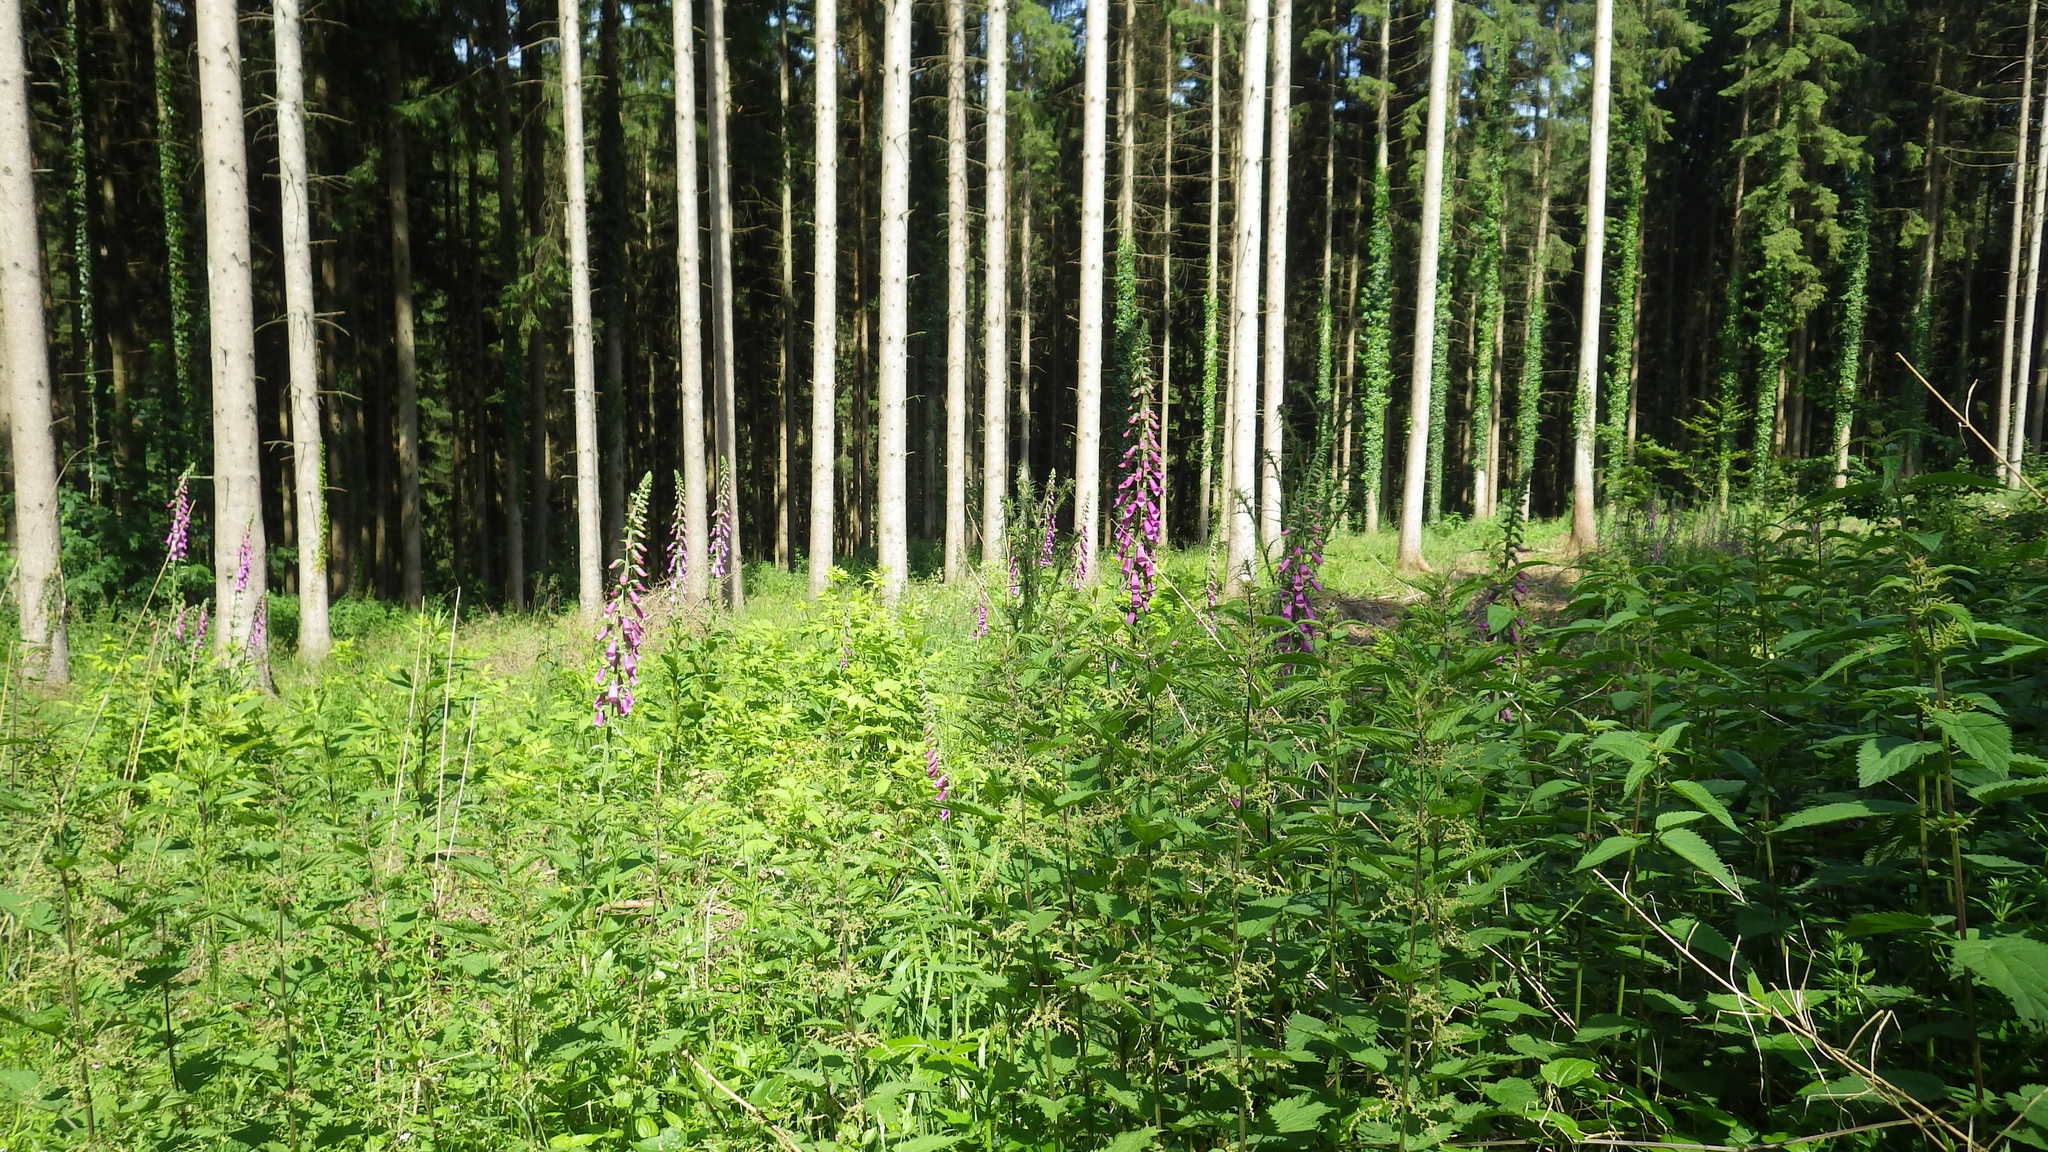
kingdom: Plantae
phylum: Tracheophyta
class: Magnoliopsida
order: Lamiales
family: Plantaginaceae
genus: Digitalis
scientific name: Digitalis purpurea
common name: Foxglove
